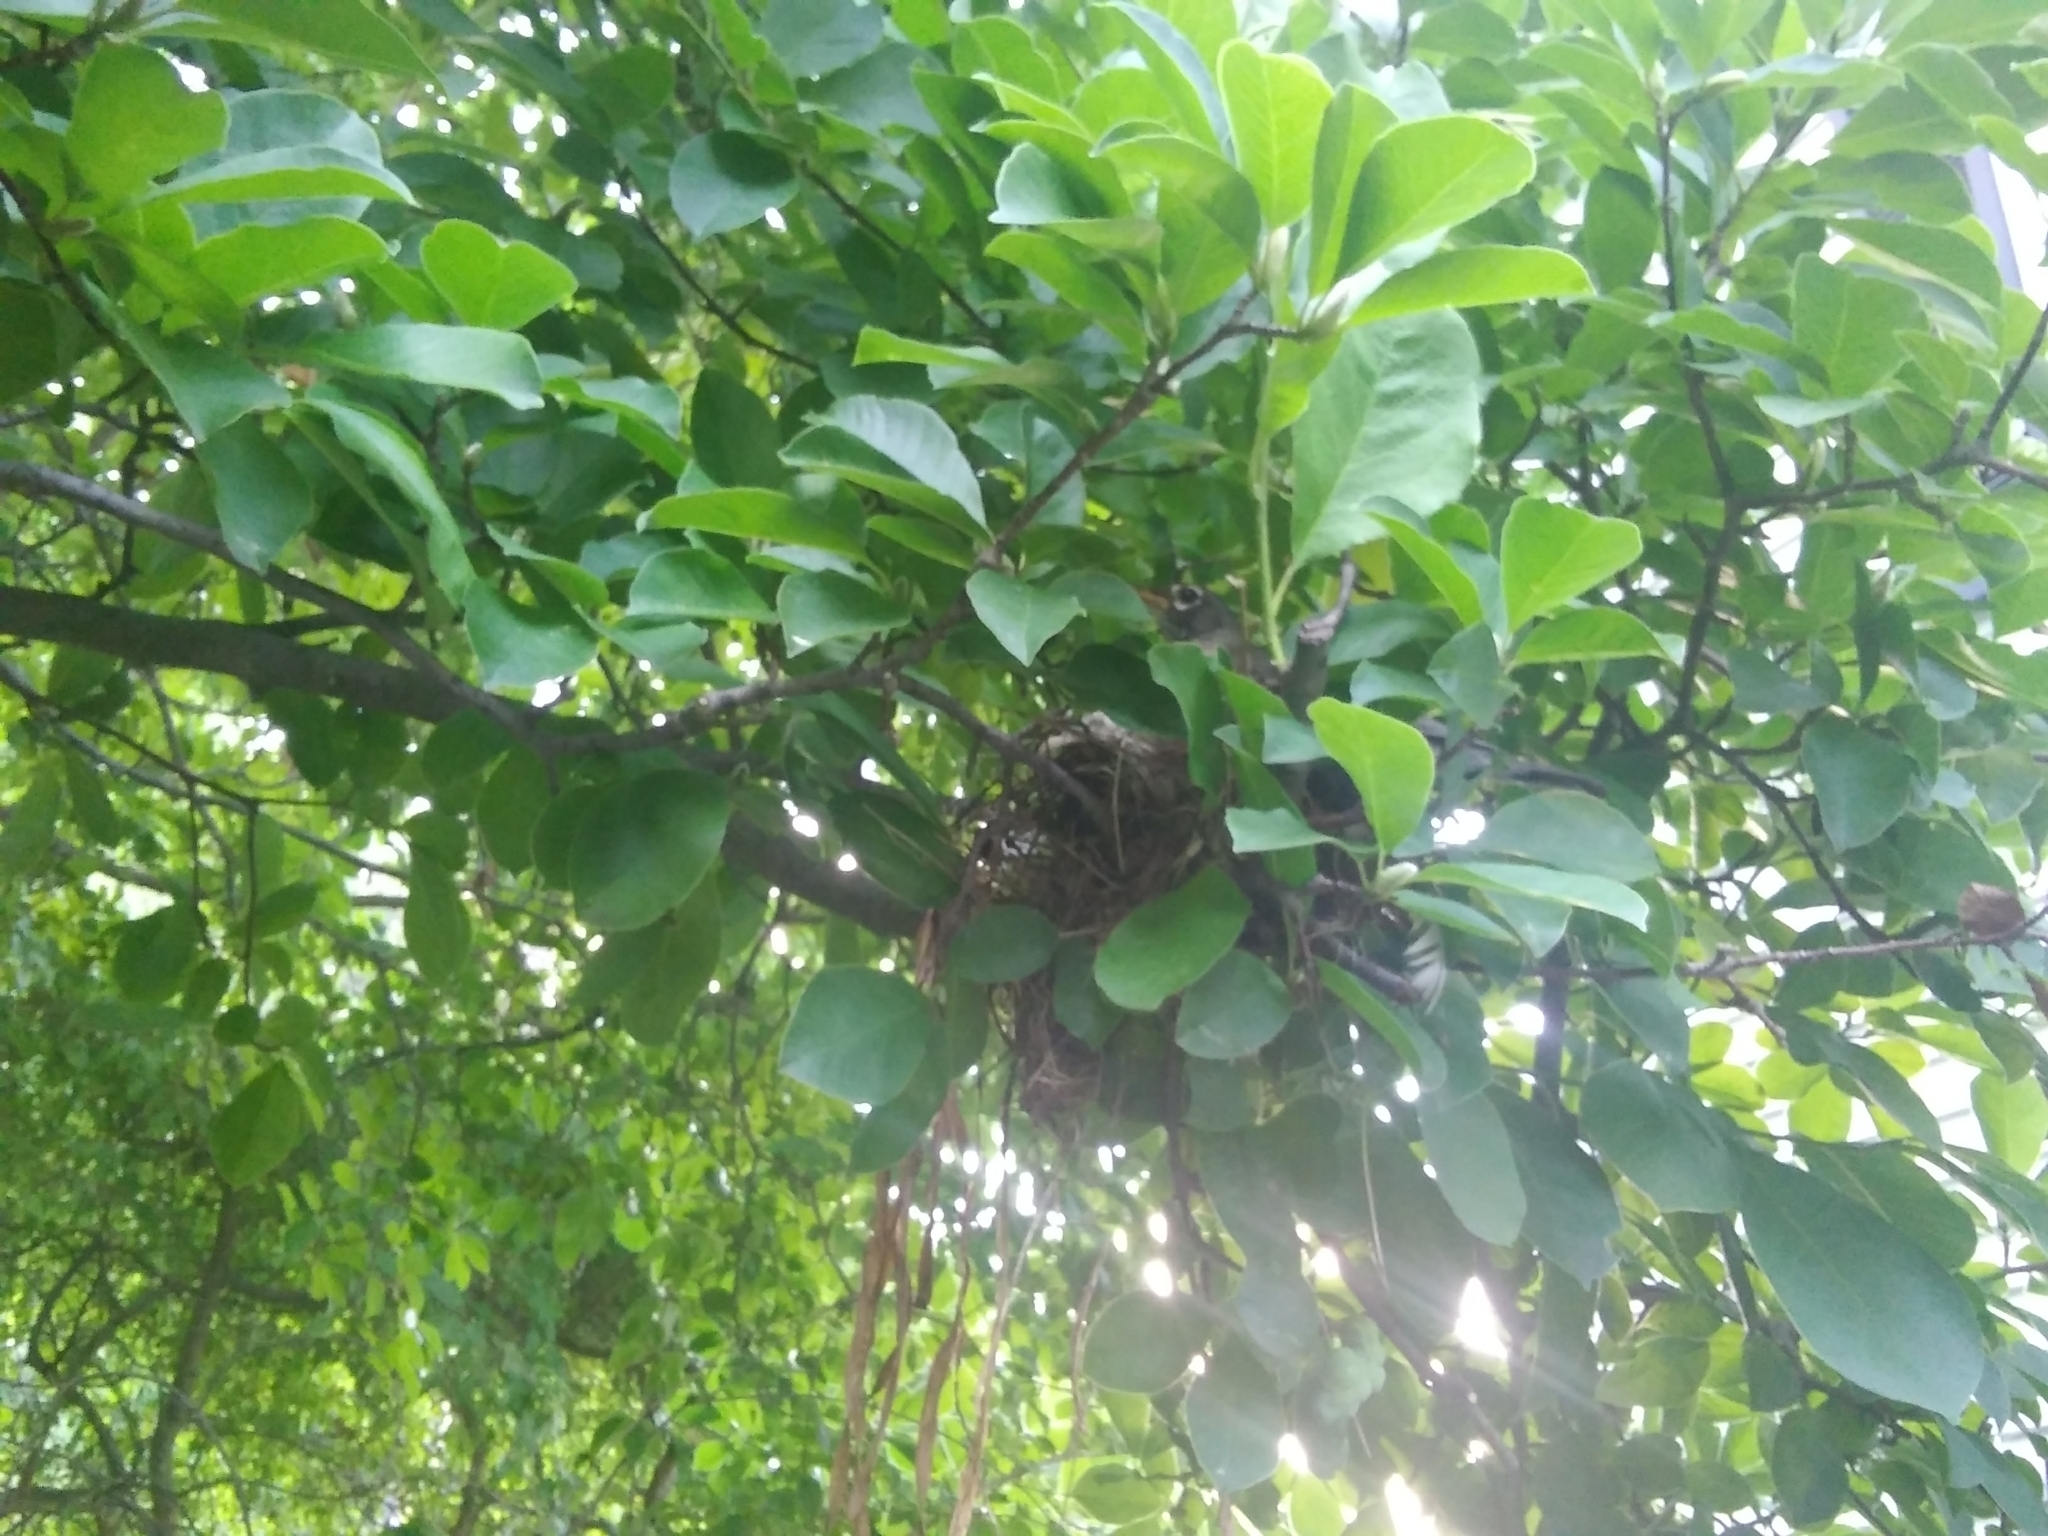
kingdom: Animalia
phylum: Chordata
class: Aves
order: Passeriformes
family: Turdidae
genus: Turdus
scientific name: Turdus migratorius
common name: American robin
